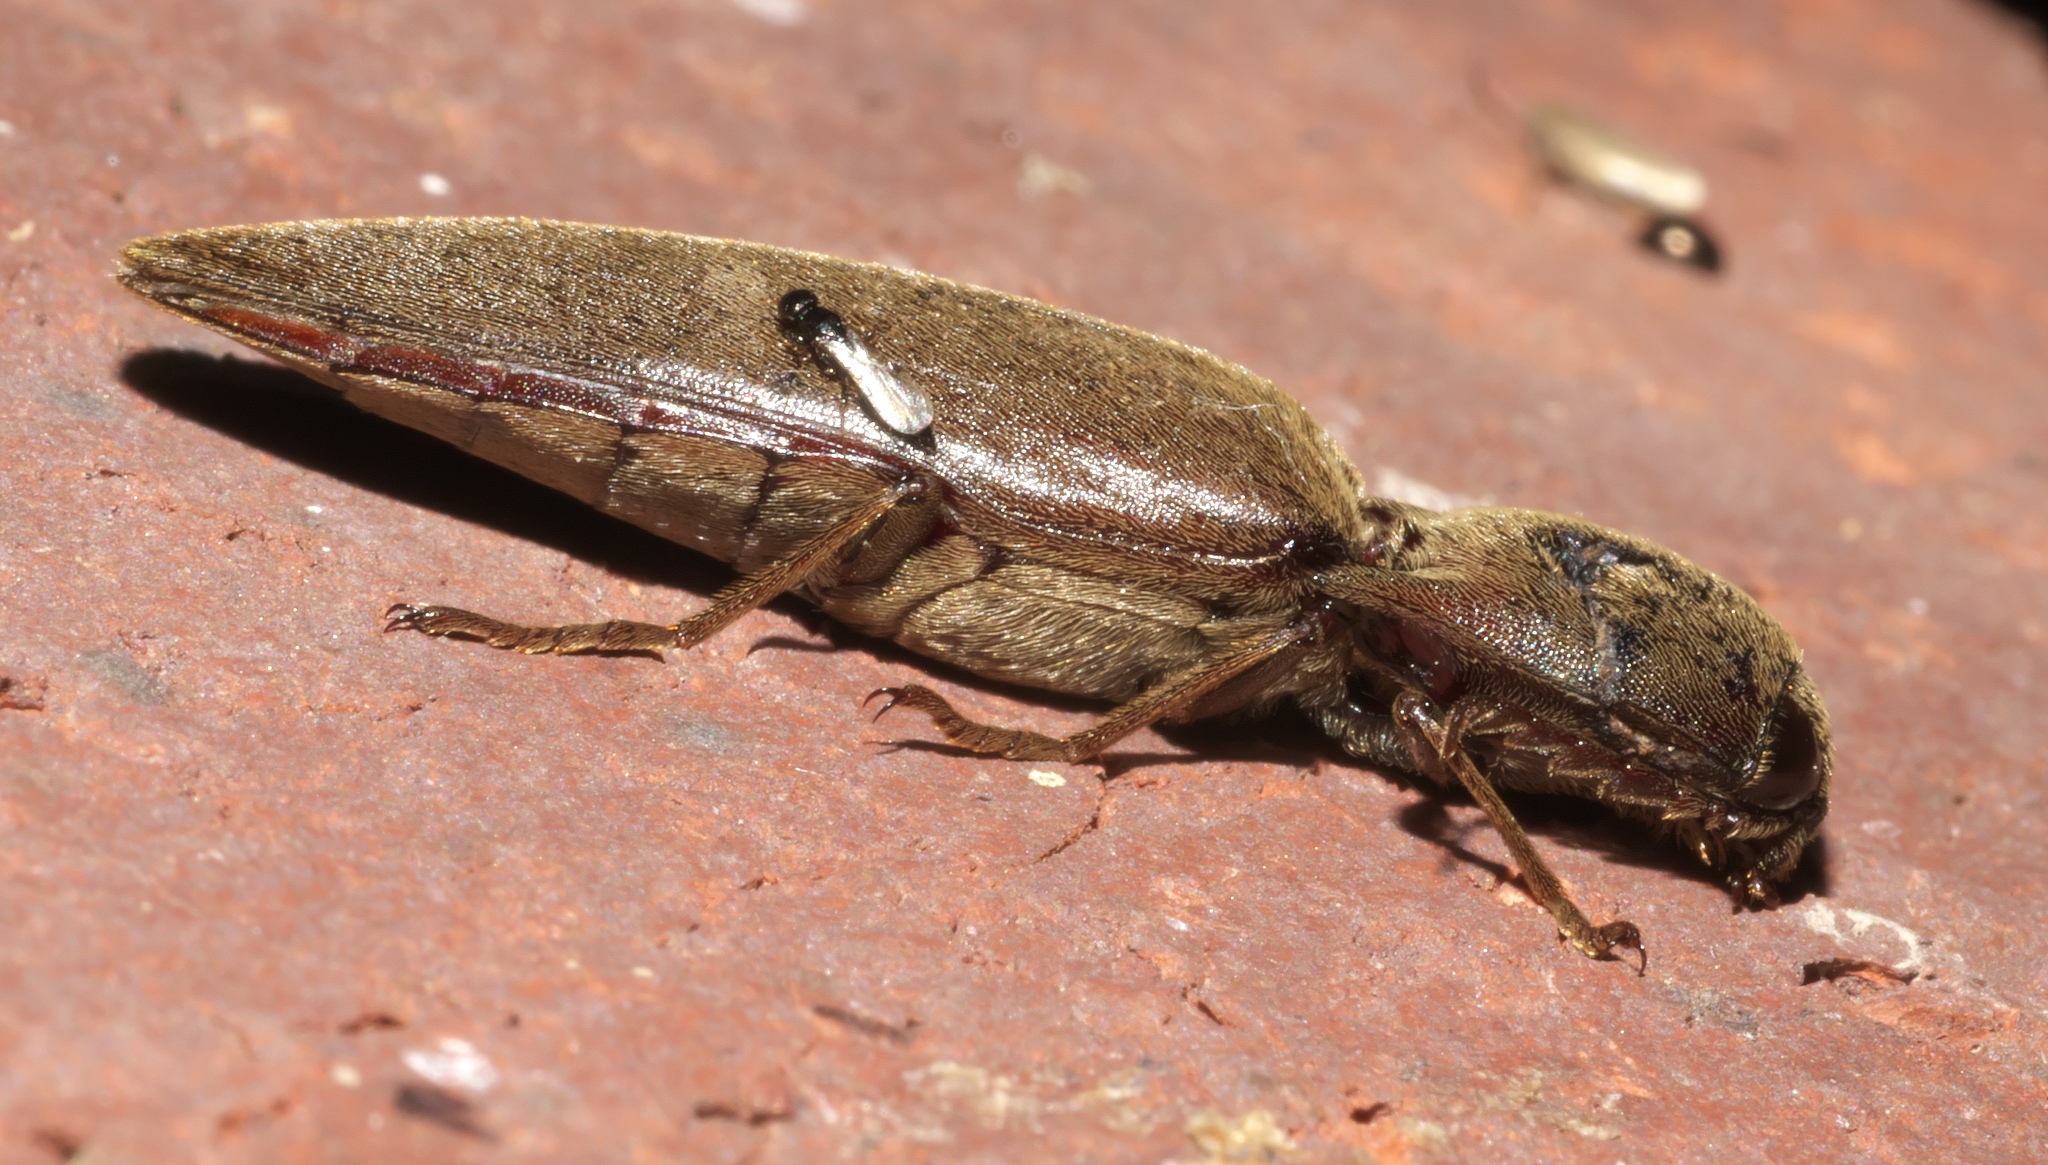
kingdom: Animalia
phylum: Arthropoda
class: Insecta
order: Coleoptera
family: Elateridae
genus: Orthostethus
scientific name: Orthostethus infuscatus
